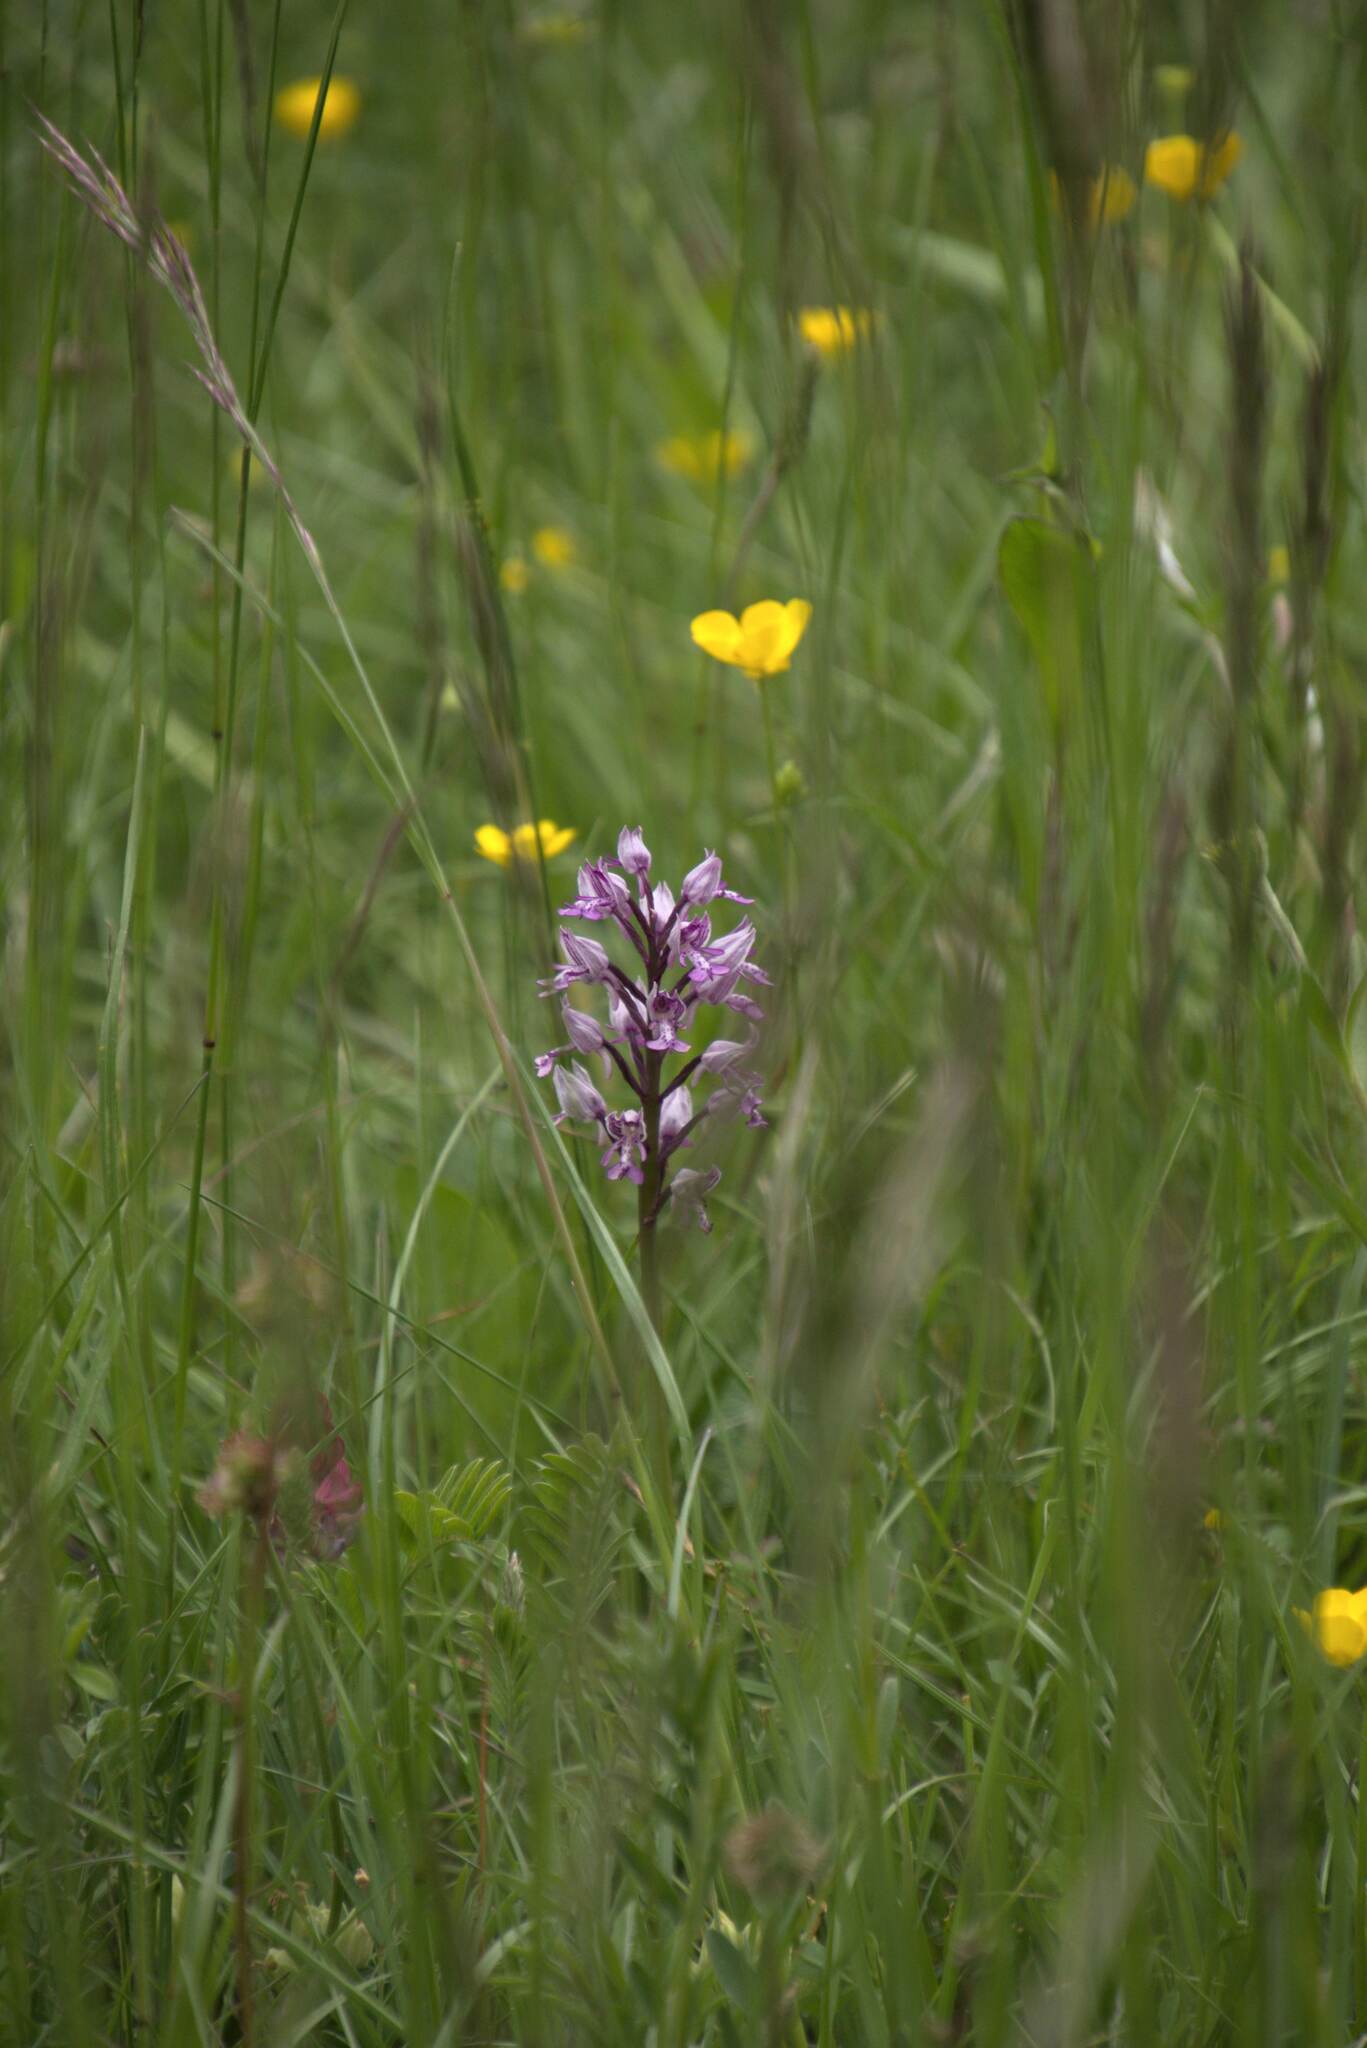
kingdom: Plantae
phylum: Tracheophyta
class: Liliopsida
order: Asparagales
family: Orchidaceae
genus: Orchis
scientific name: Orchis militaris
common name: Military orchid
